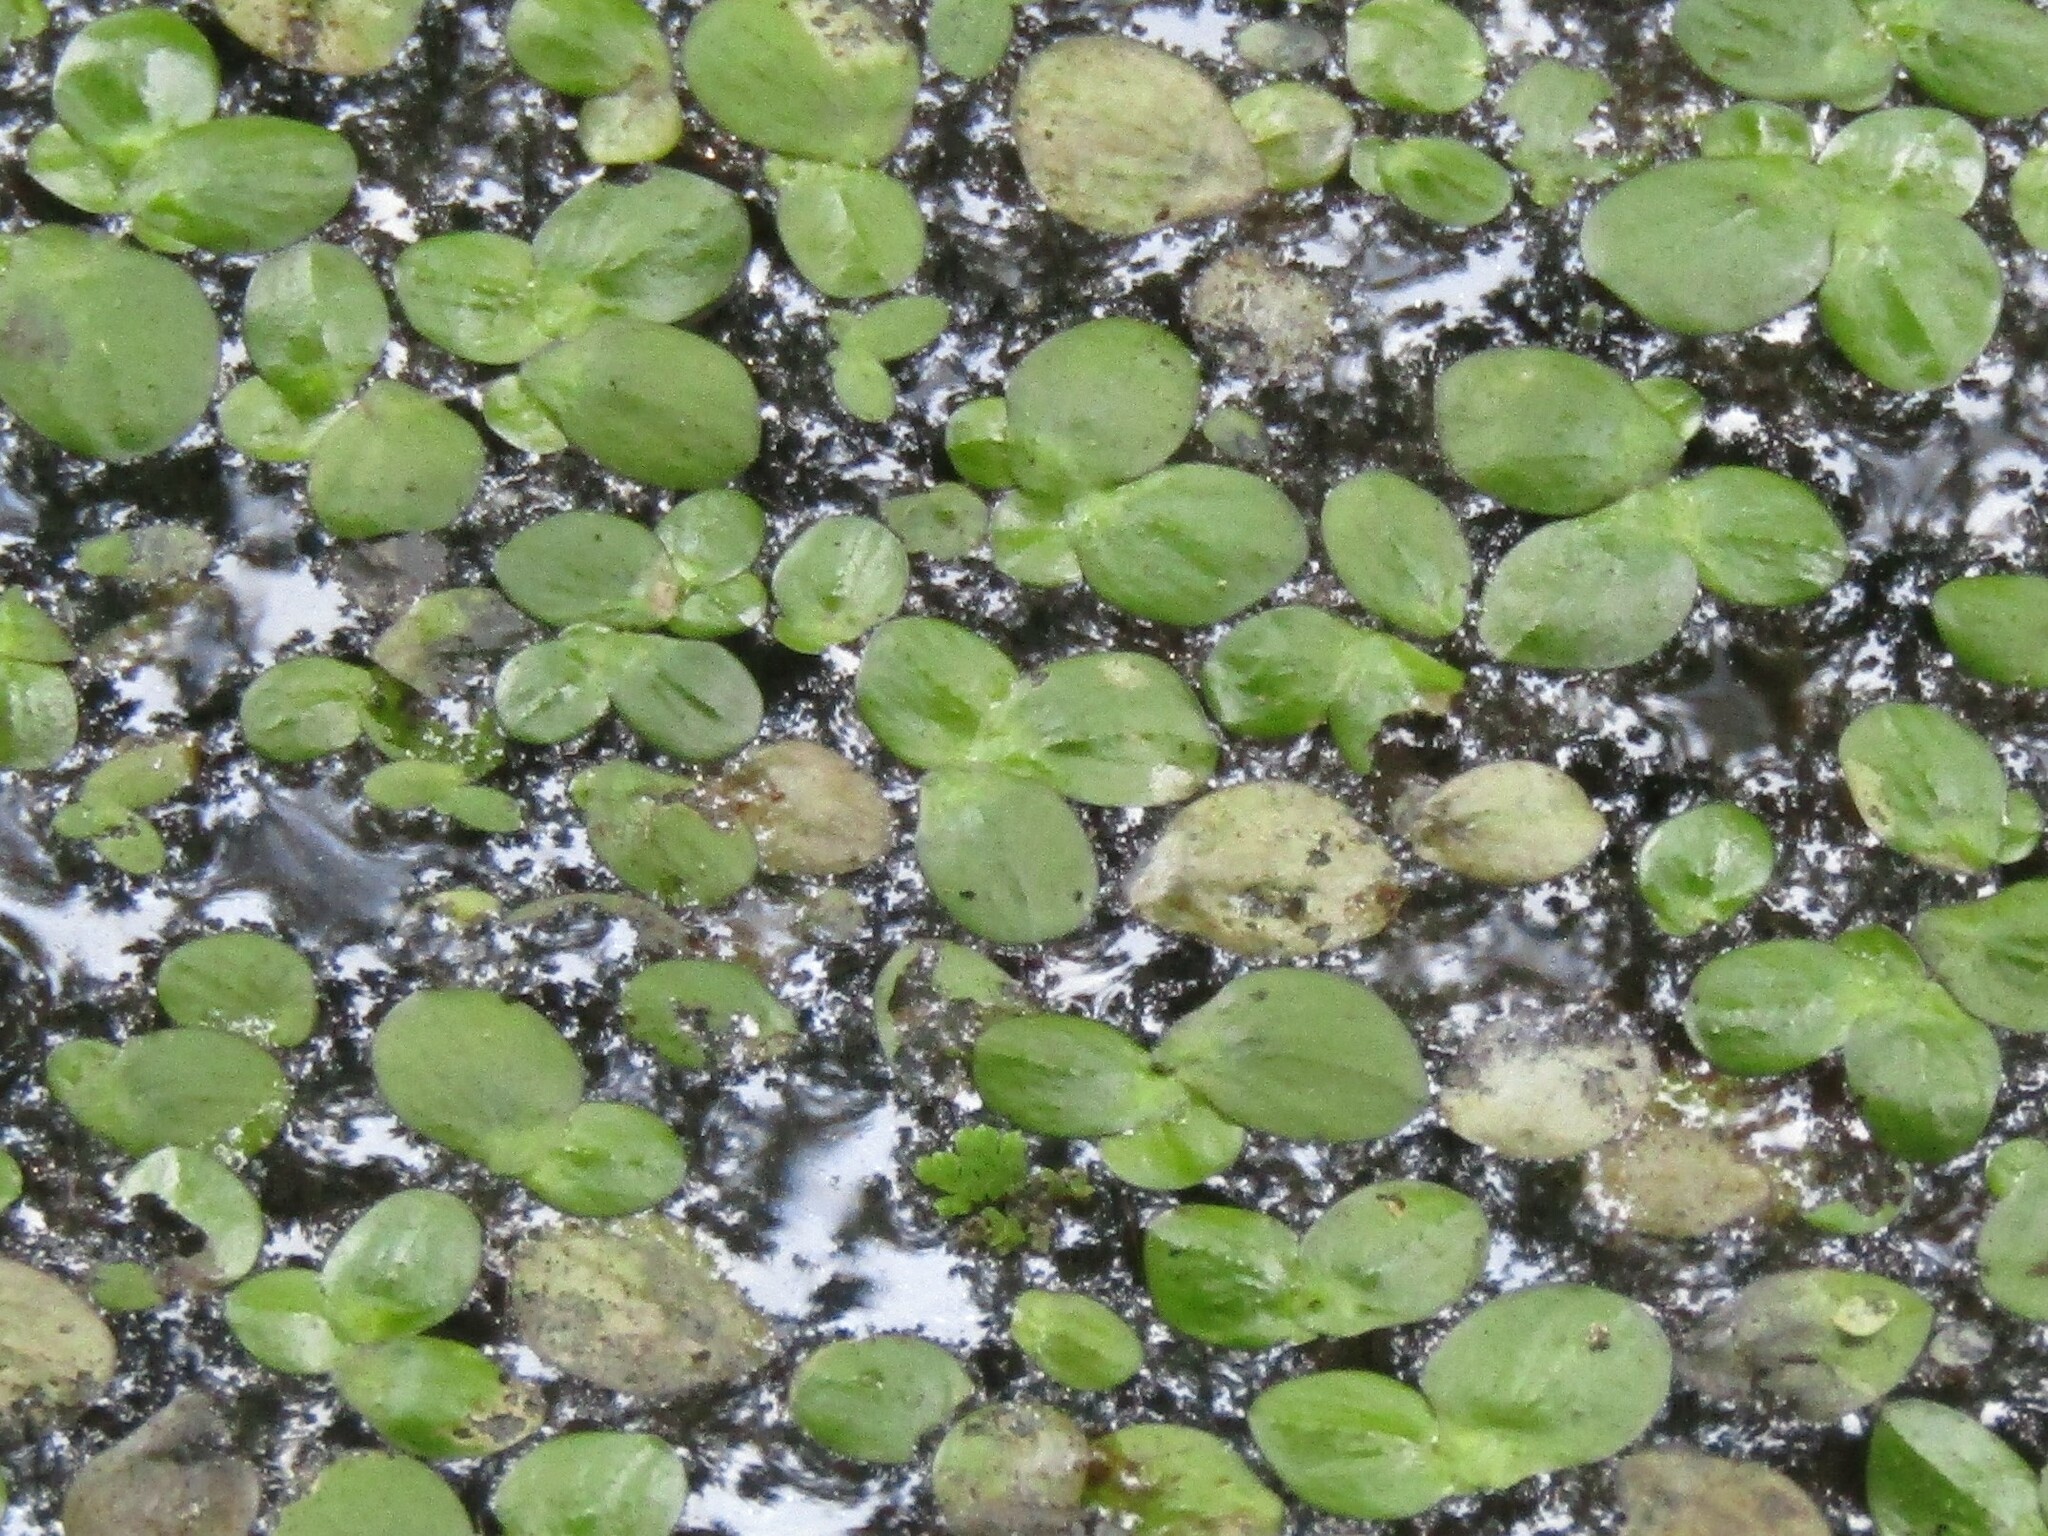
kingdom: Plantae
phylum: Tracheophyta
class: Liliopsida
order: Alismatales
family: Araceae
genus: Spirodela
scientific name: Spirodela polyrhiza
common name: Great duckweed
